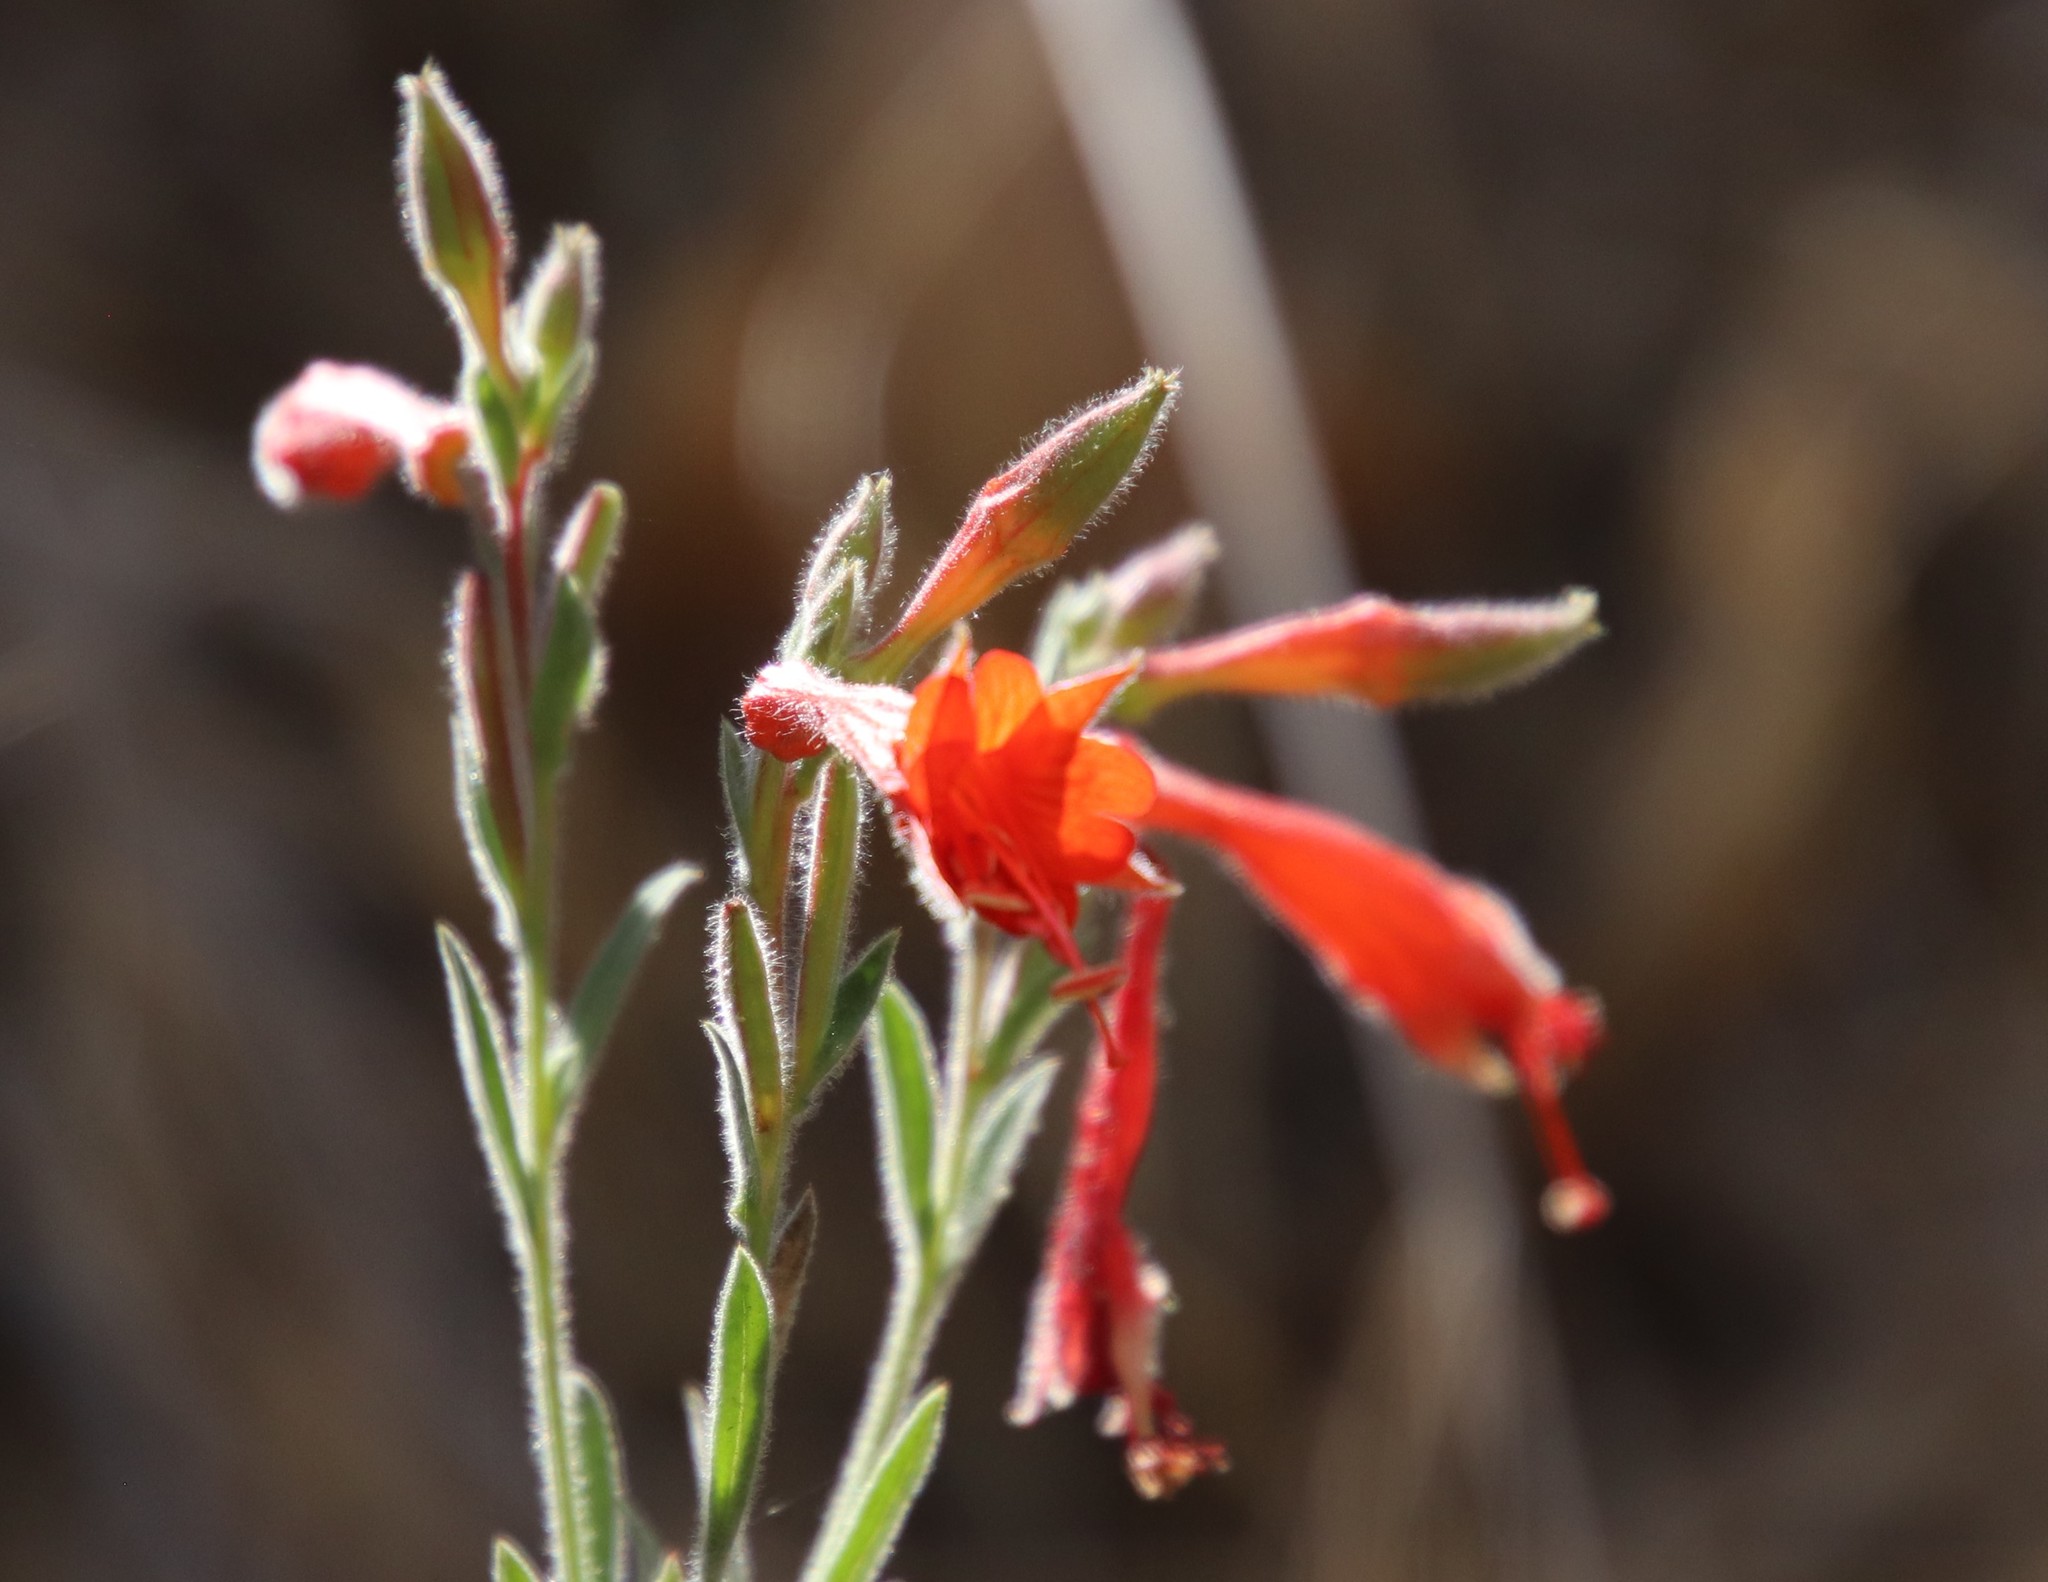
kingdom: Plantae
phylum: Tracheophyta
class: Magnoliopsida
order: Myrtales
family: Onagraceae
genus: Epilobium
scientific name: Epilobium canum
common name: California-fuchsia
